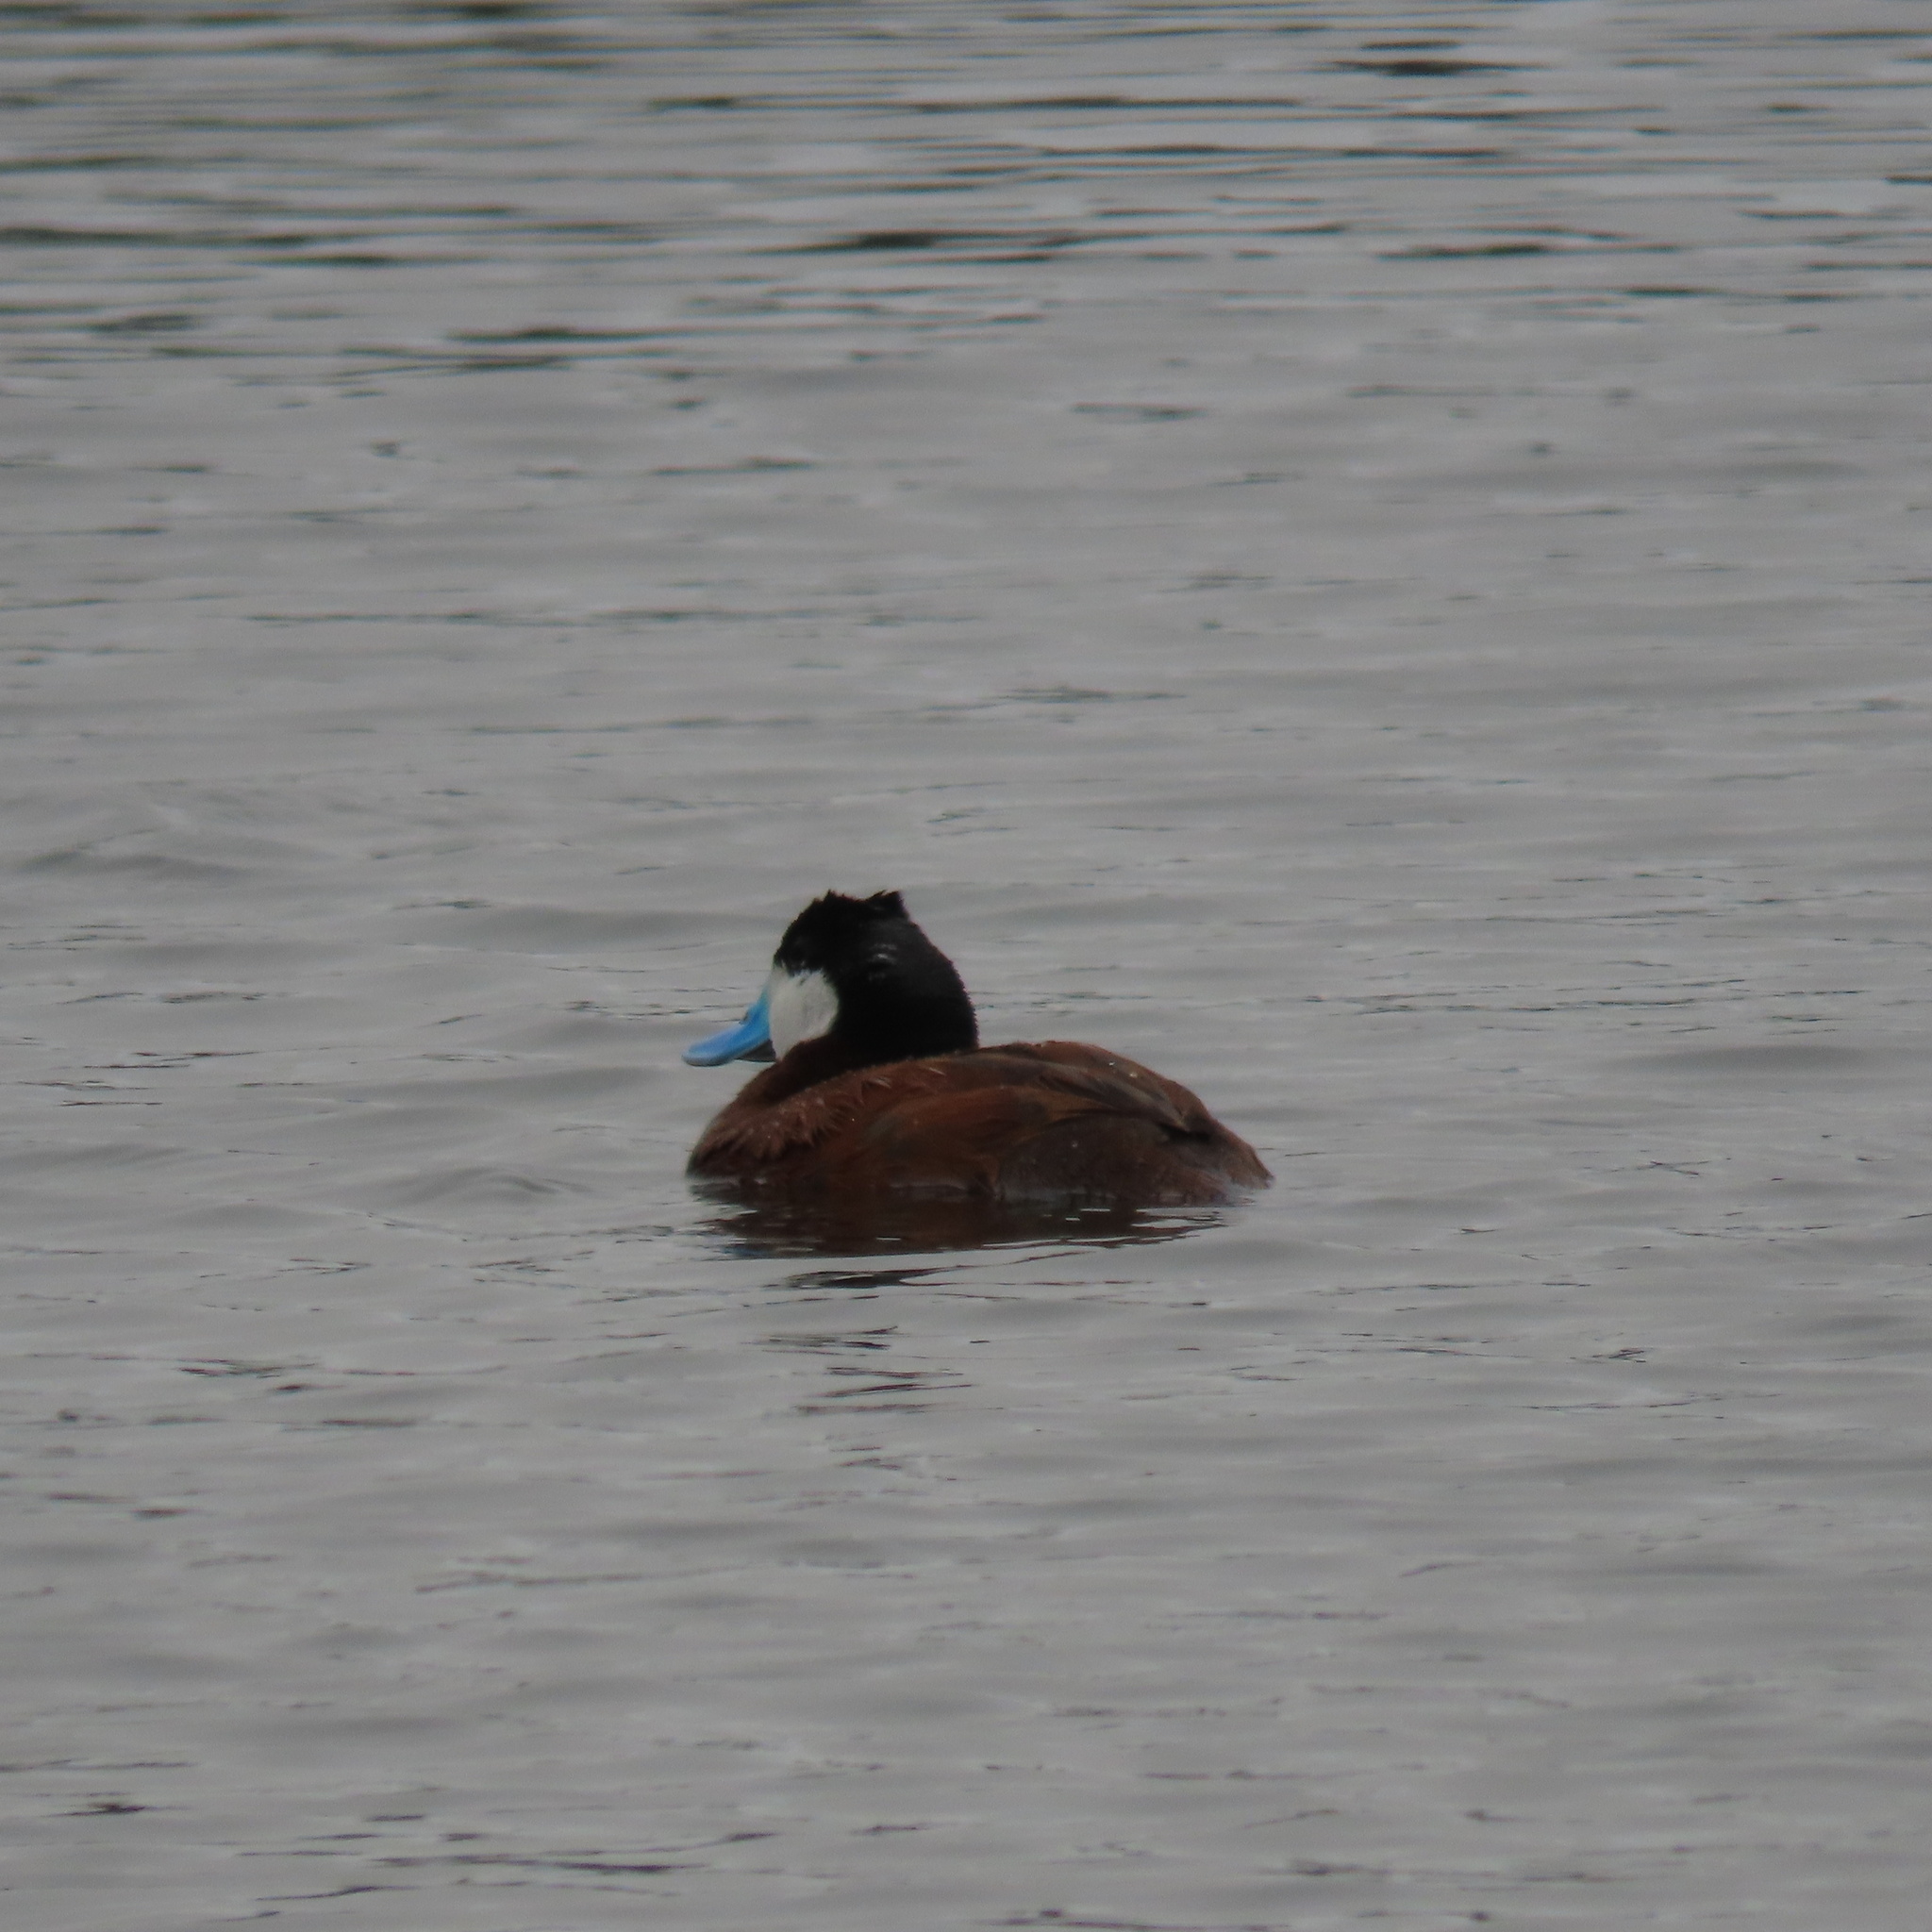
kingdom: Animalia
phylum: Chordata
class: Aves
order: Anseriformes
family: Anatidae
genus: Oxyura
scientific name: Oxyura jamaicensis
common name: Ruddy duck
